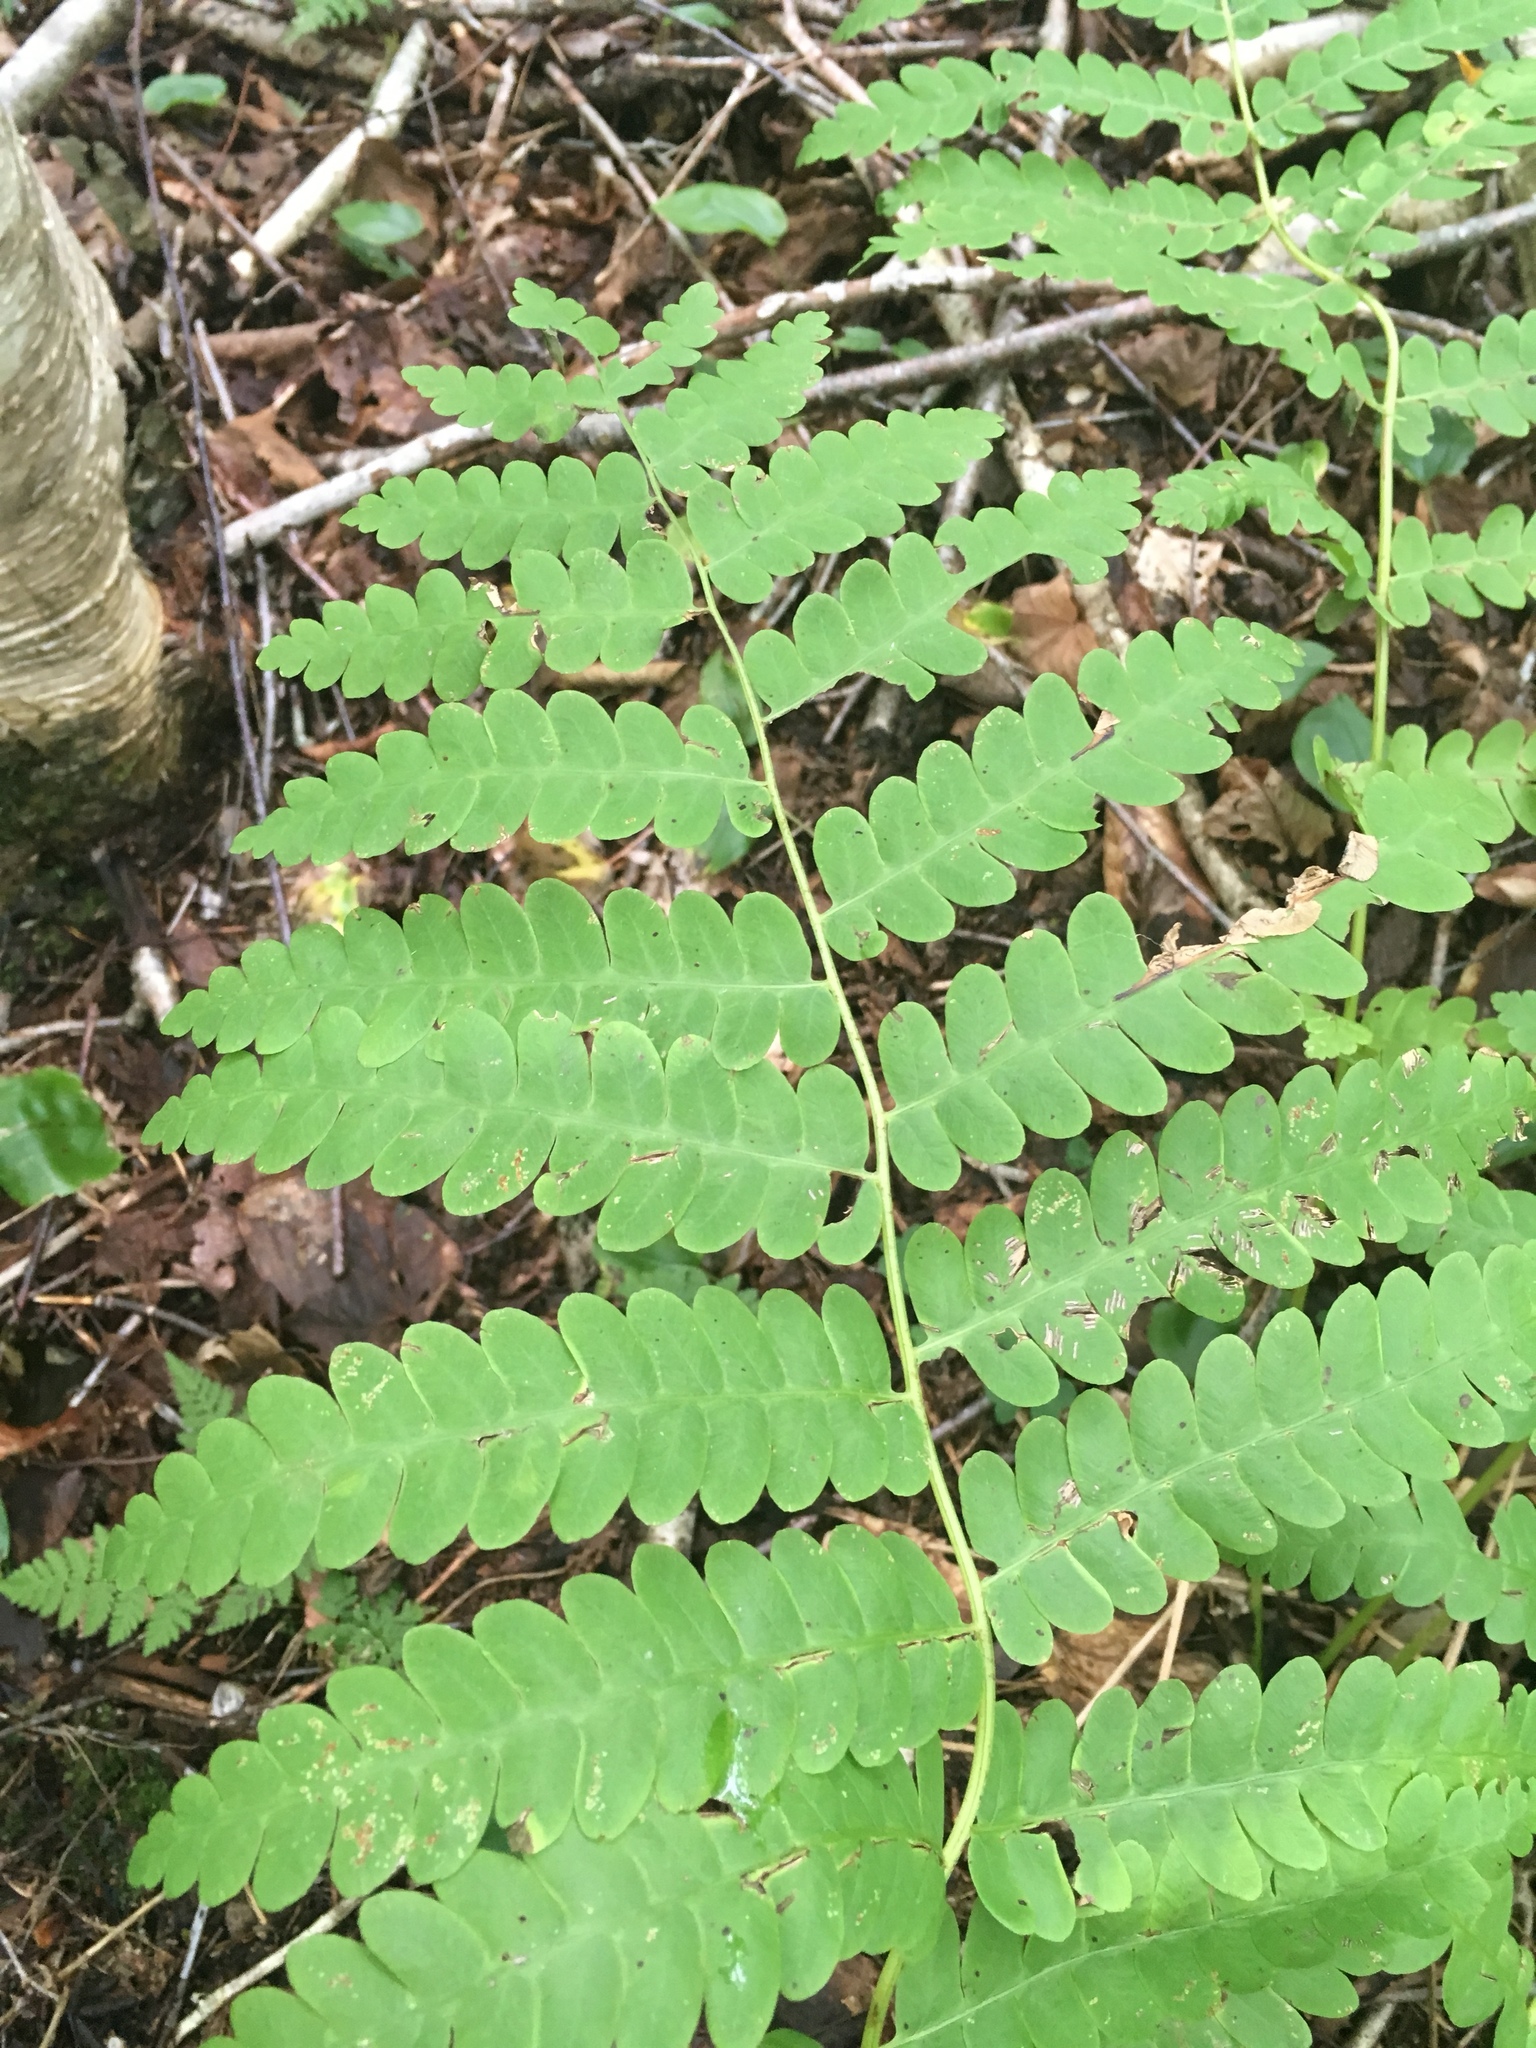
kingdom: Plantae
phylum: Tracheophyta
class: Polypodiopsida
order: Osmundales
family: Osmundaceae
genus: Claytosmunda
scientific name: Claytosmunda claytoniana
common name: Clayton's fern
